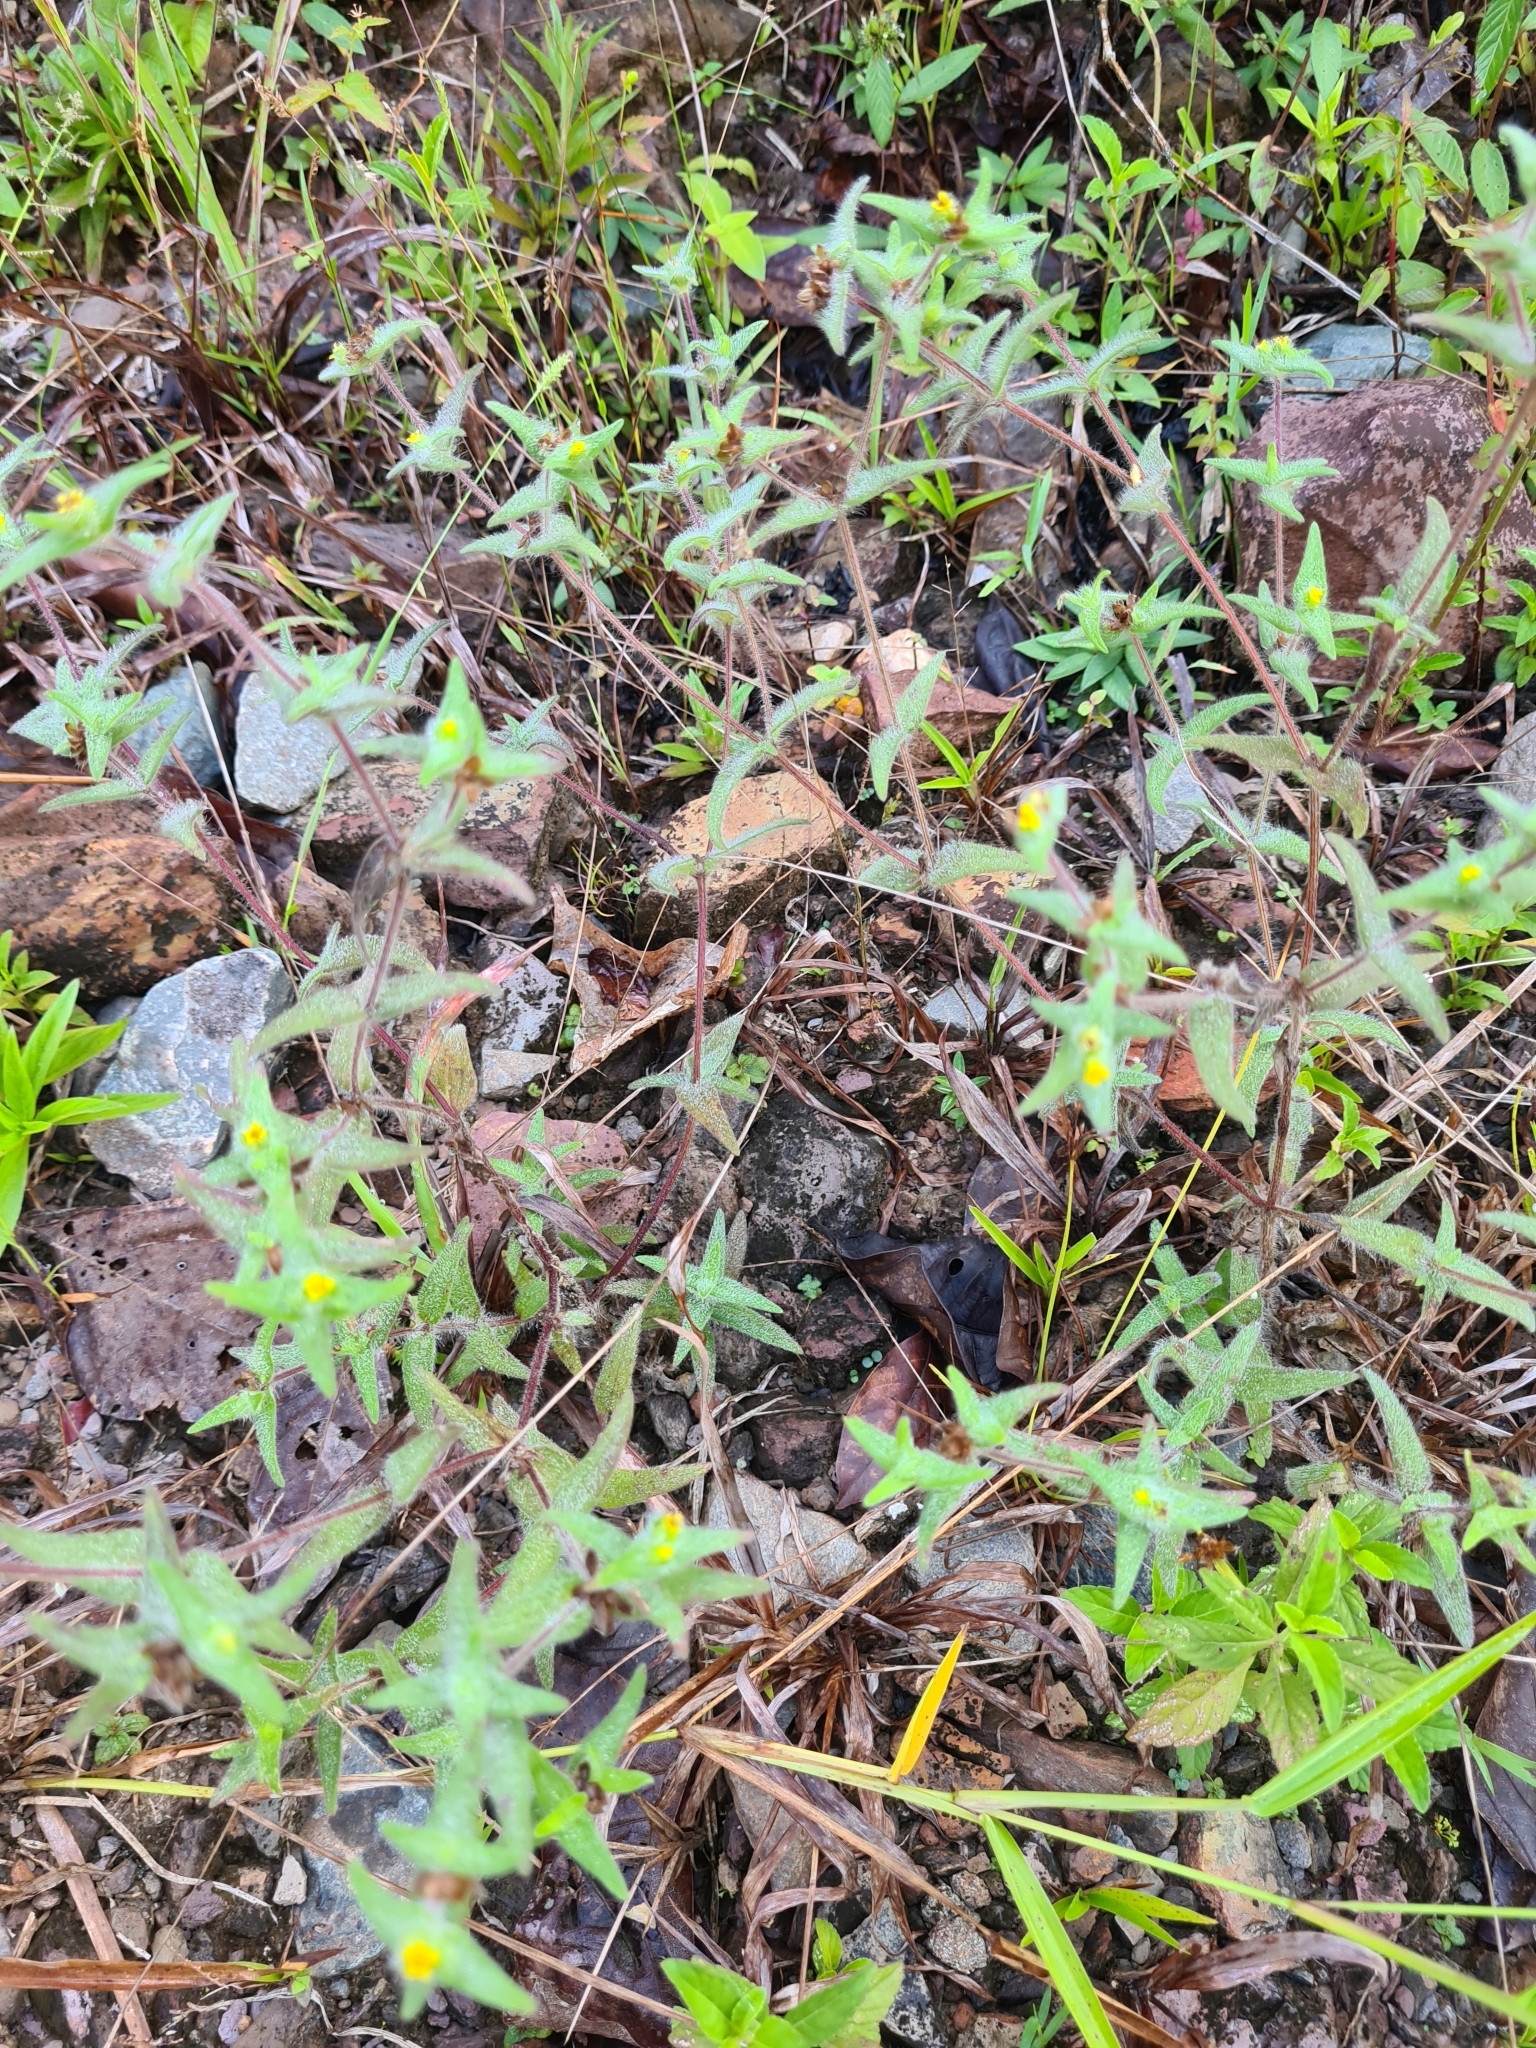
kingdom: Plantae
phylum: Tracheophyta
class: Magnoliopsida
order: Asterales
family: Asteraceae
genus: Unxia
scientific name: Unxia camphorata
